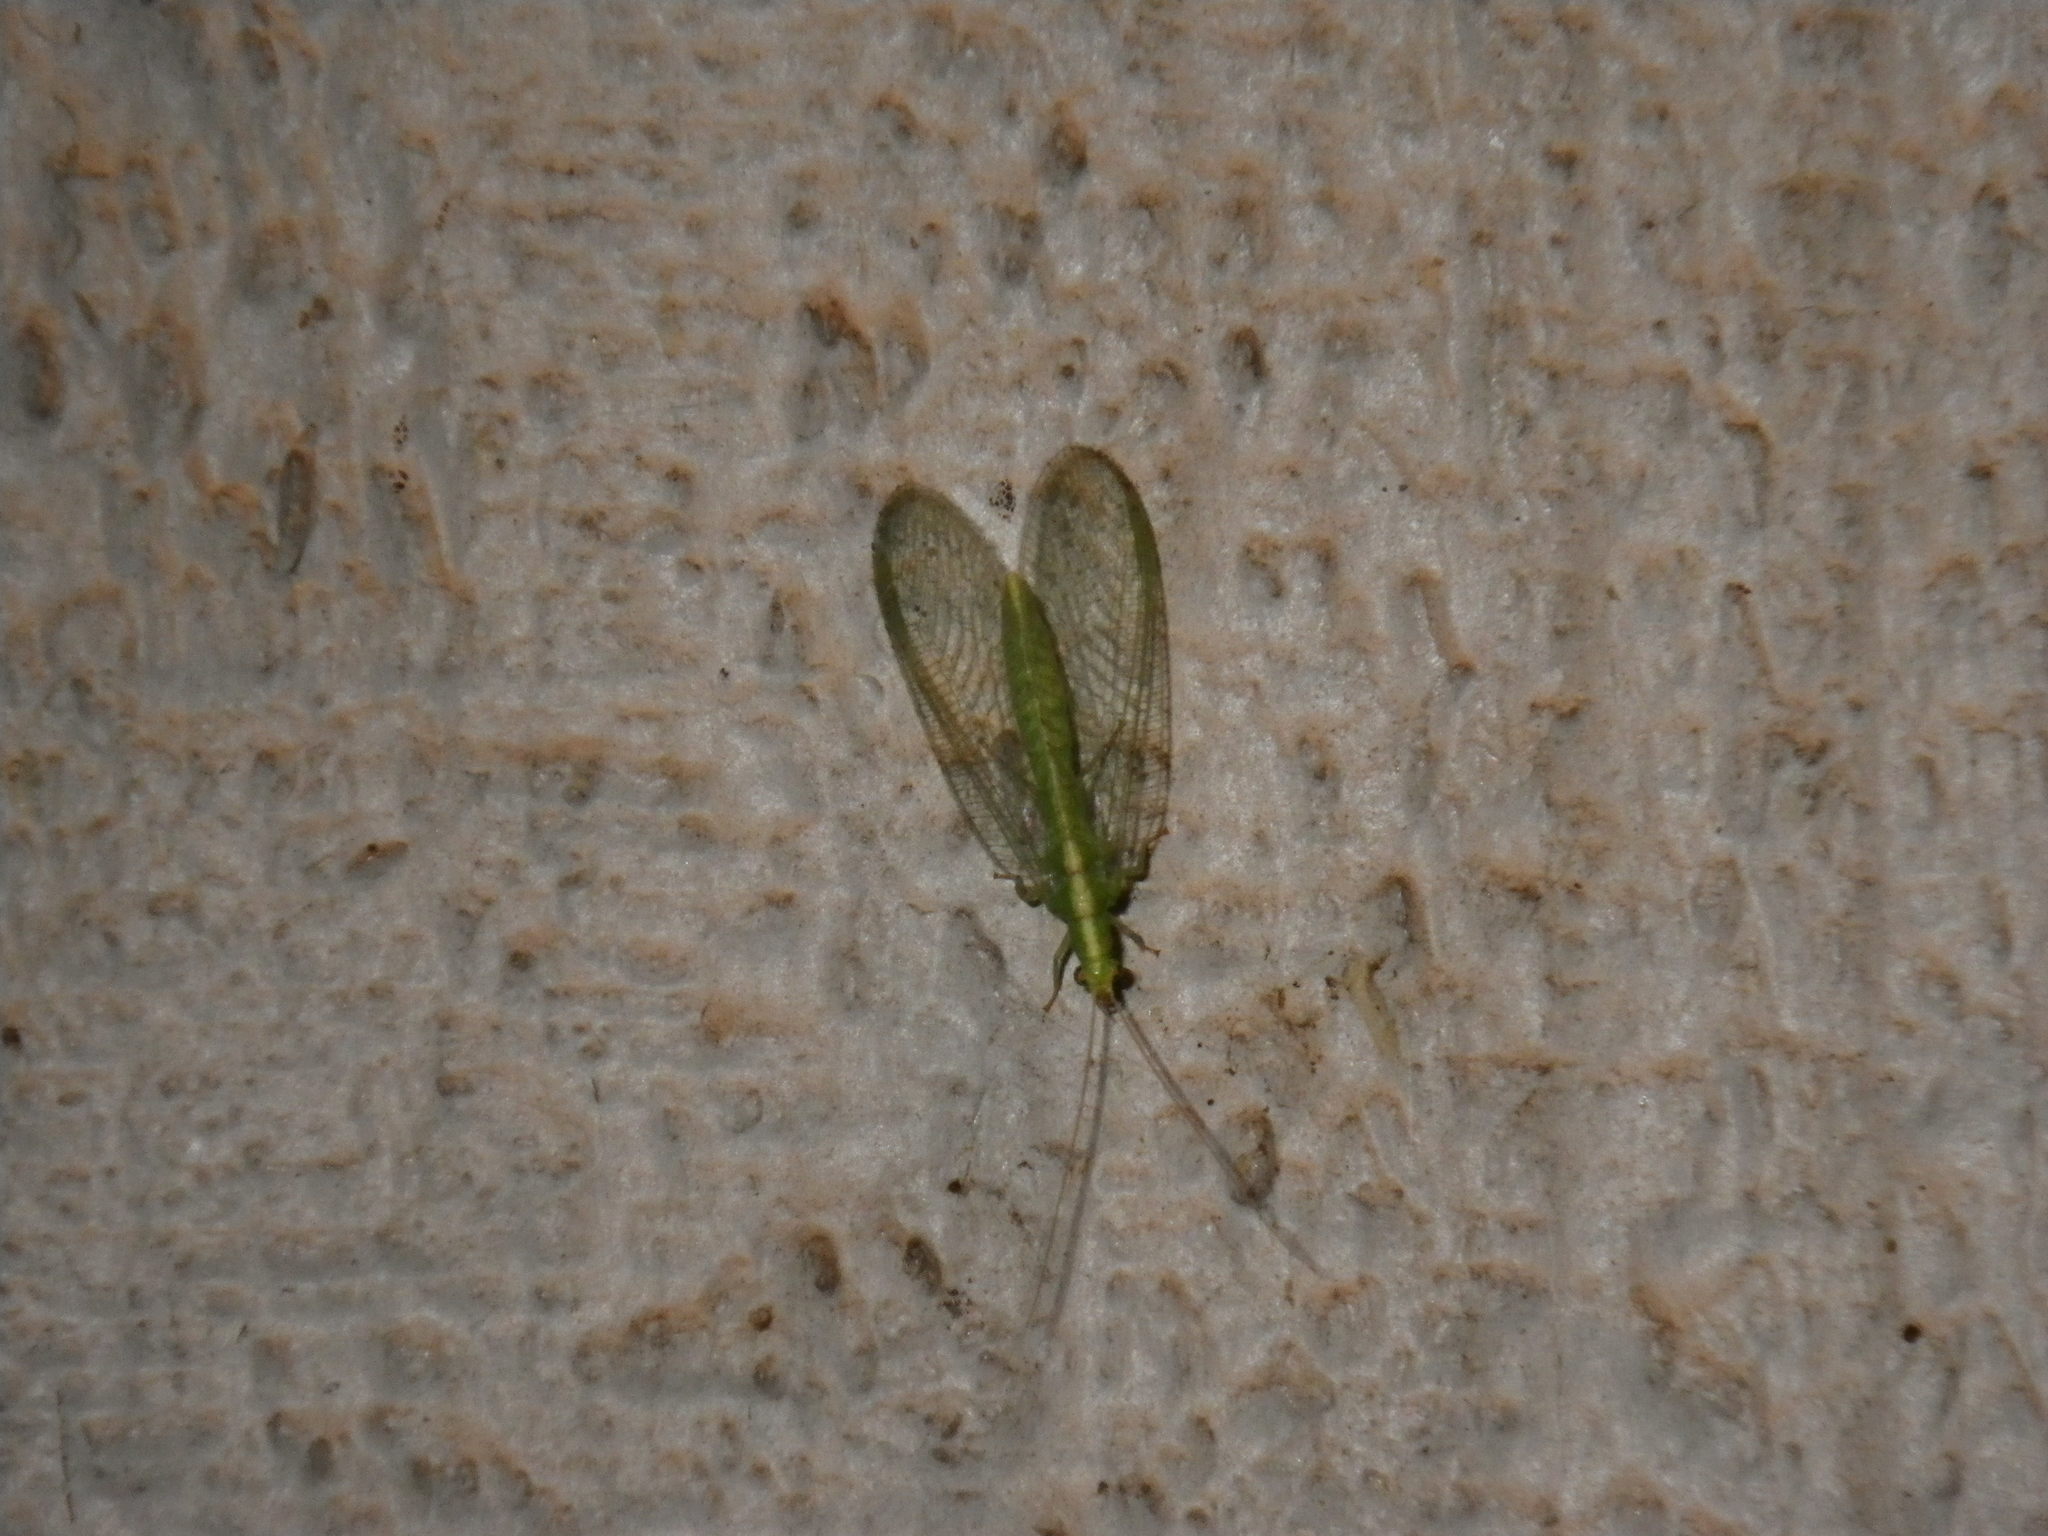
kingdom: Animalia
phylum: Arthropoda
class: Insecta
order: Neuroptera
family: Chrysopidae
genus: Chrysoperla
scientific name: Chrysoperla
